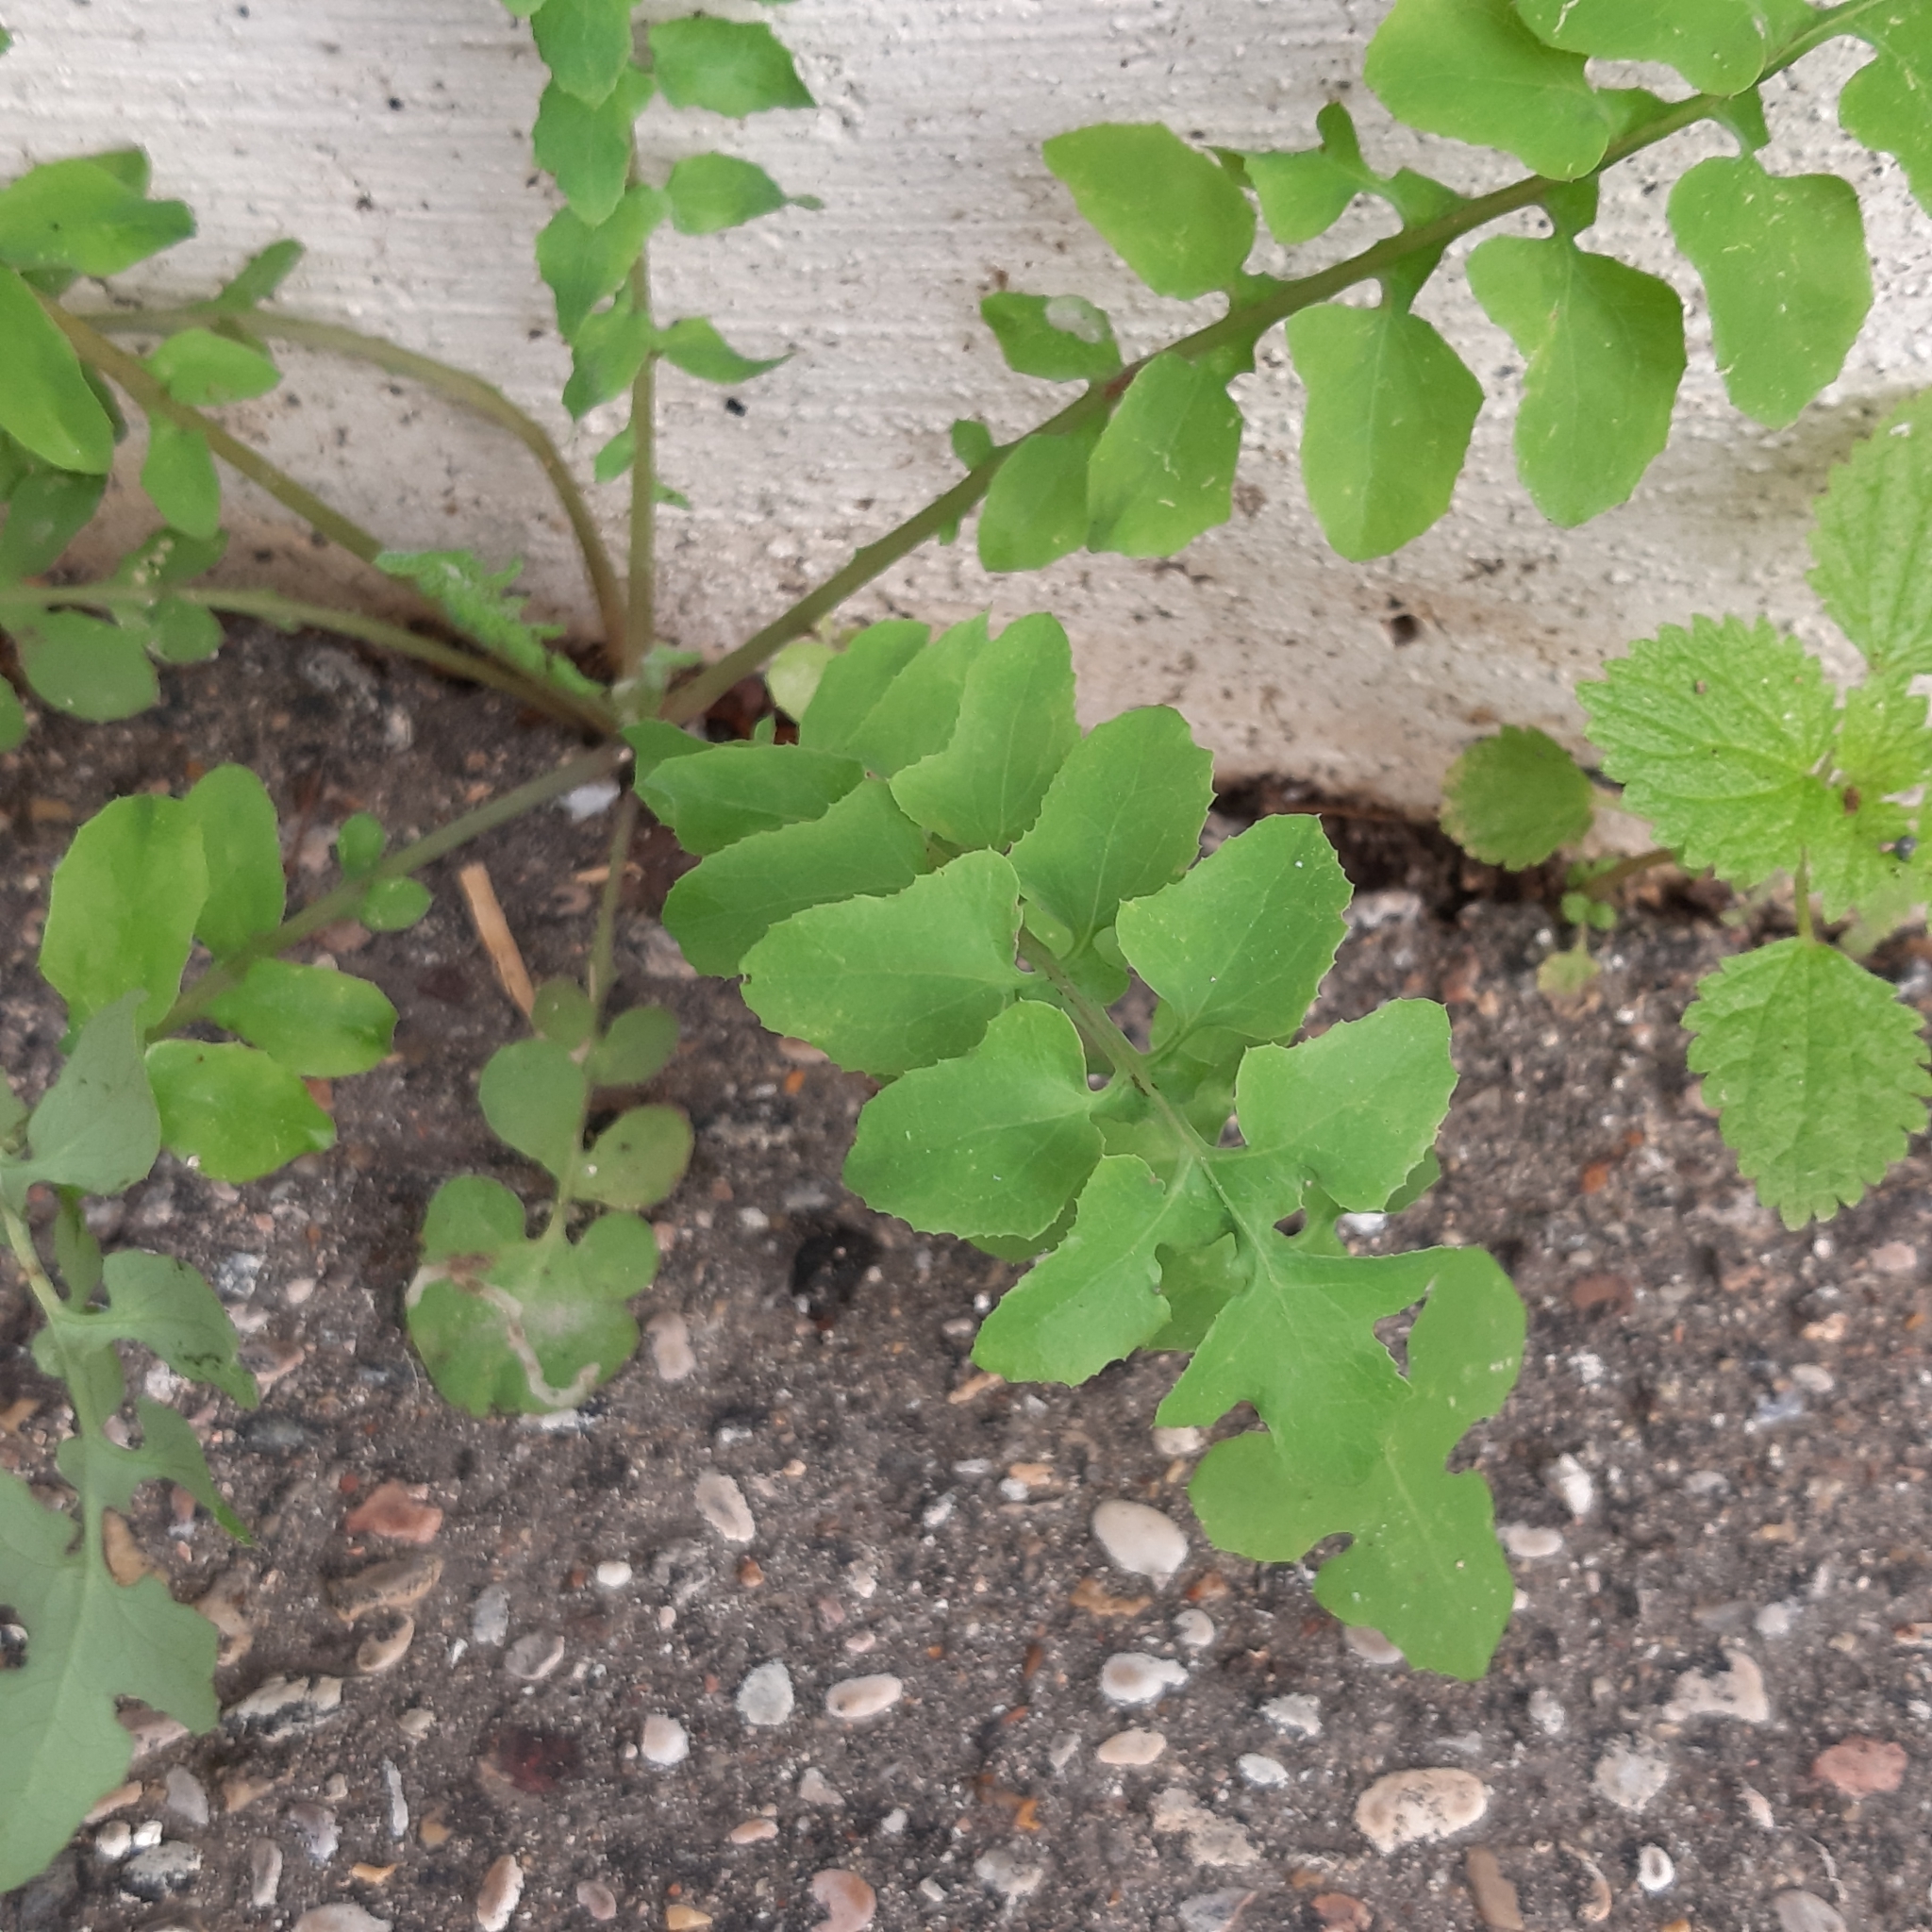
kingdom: Plantae
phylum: Tracheophyta
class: Magnoliopsida
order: Asterales
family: Asteraceae
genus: Sonchus
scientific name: Sonchus tenerrimus
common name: Clammy sowthistle
